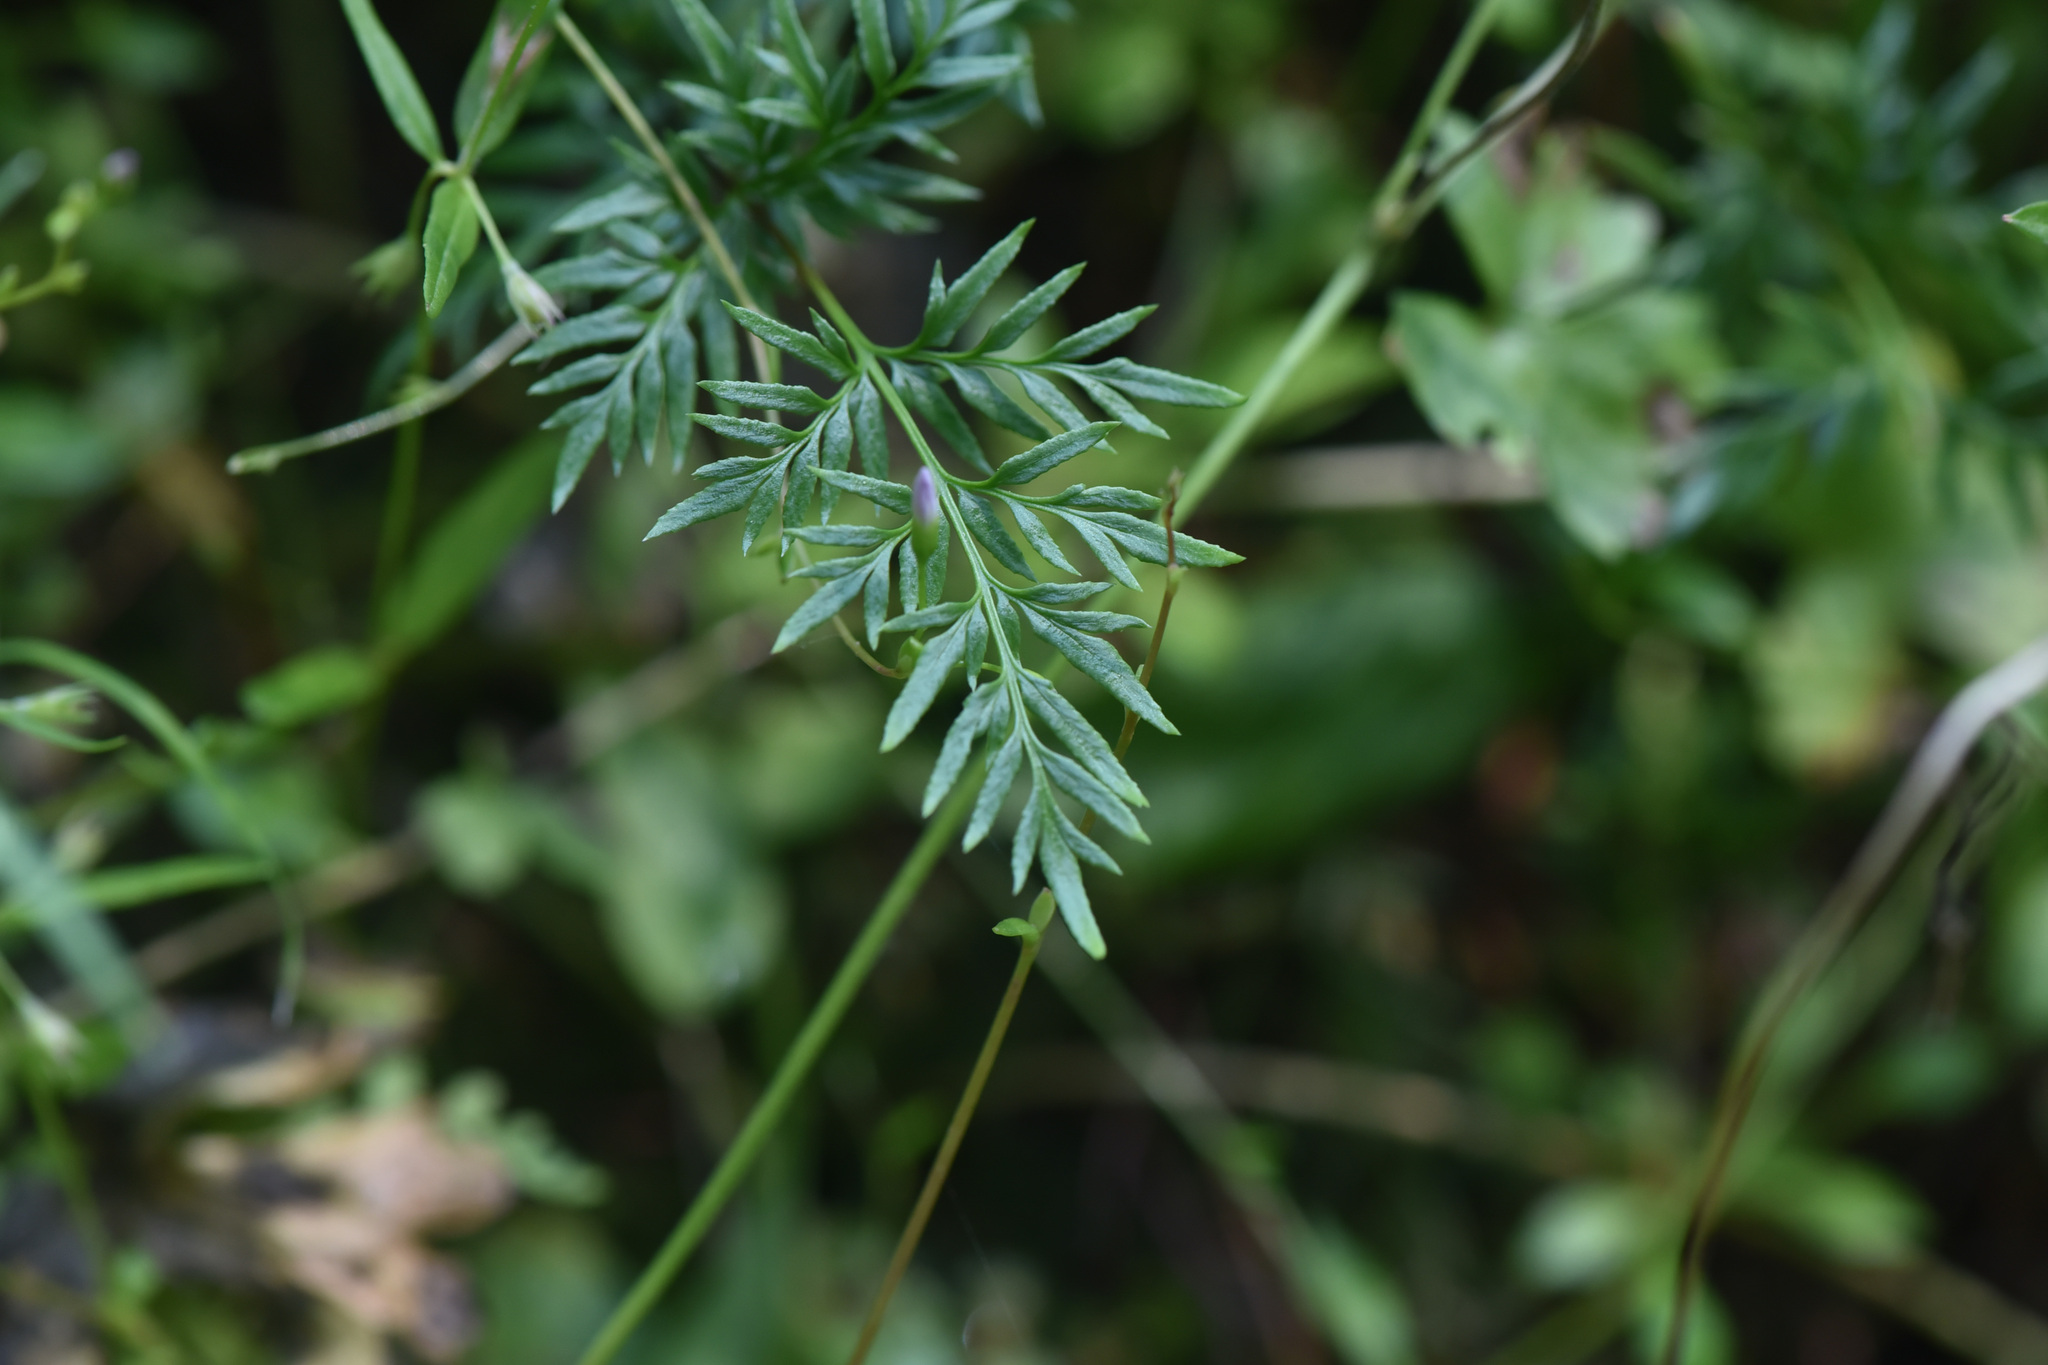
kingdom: Plantae
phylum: Tracheophyta
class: Polypodiopsida
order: Polypodiales
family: Pteridaceae
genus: Aspidotis
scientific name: Aspidotis densa
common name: Indian's dream
